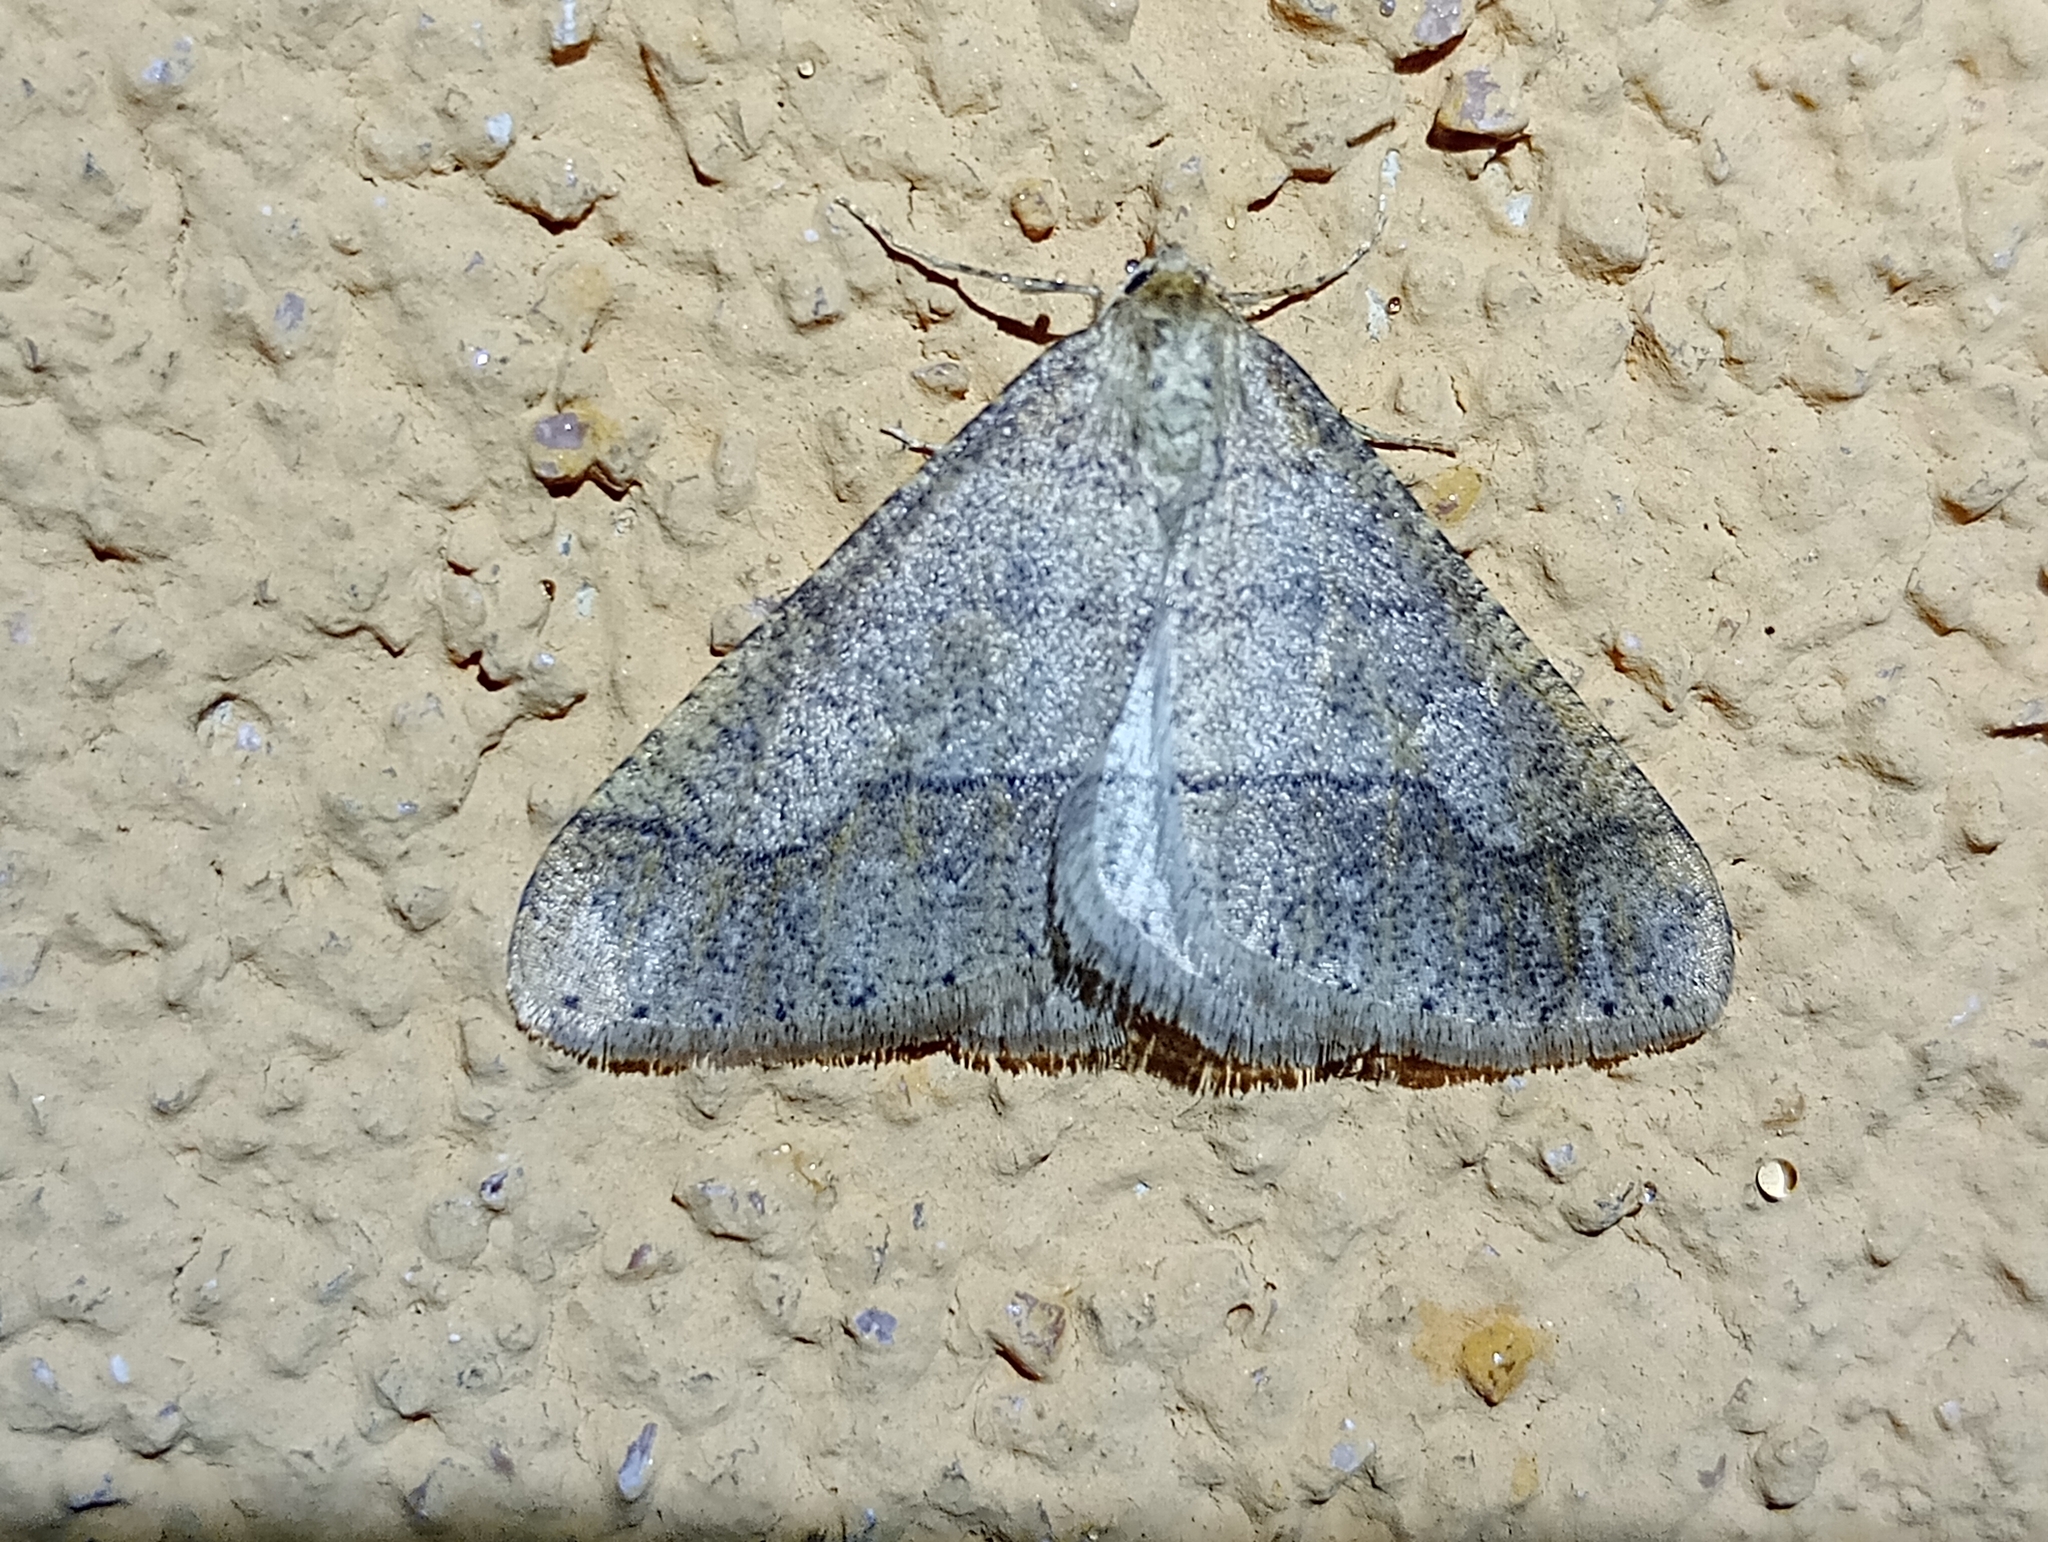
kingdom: Animalia
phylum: Arthropoda
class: Insecta
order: Lepidoptera
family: Geometridae
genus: Agriopis
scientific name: Agriopis marginaria
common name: Dotted border
